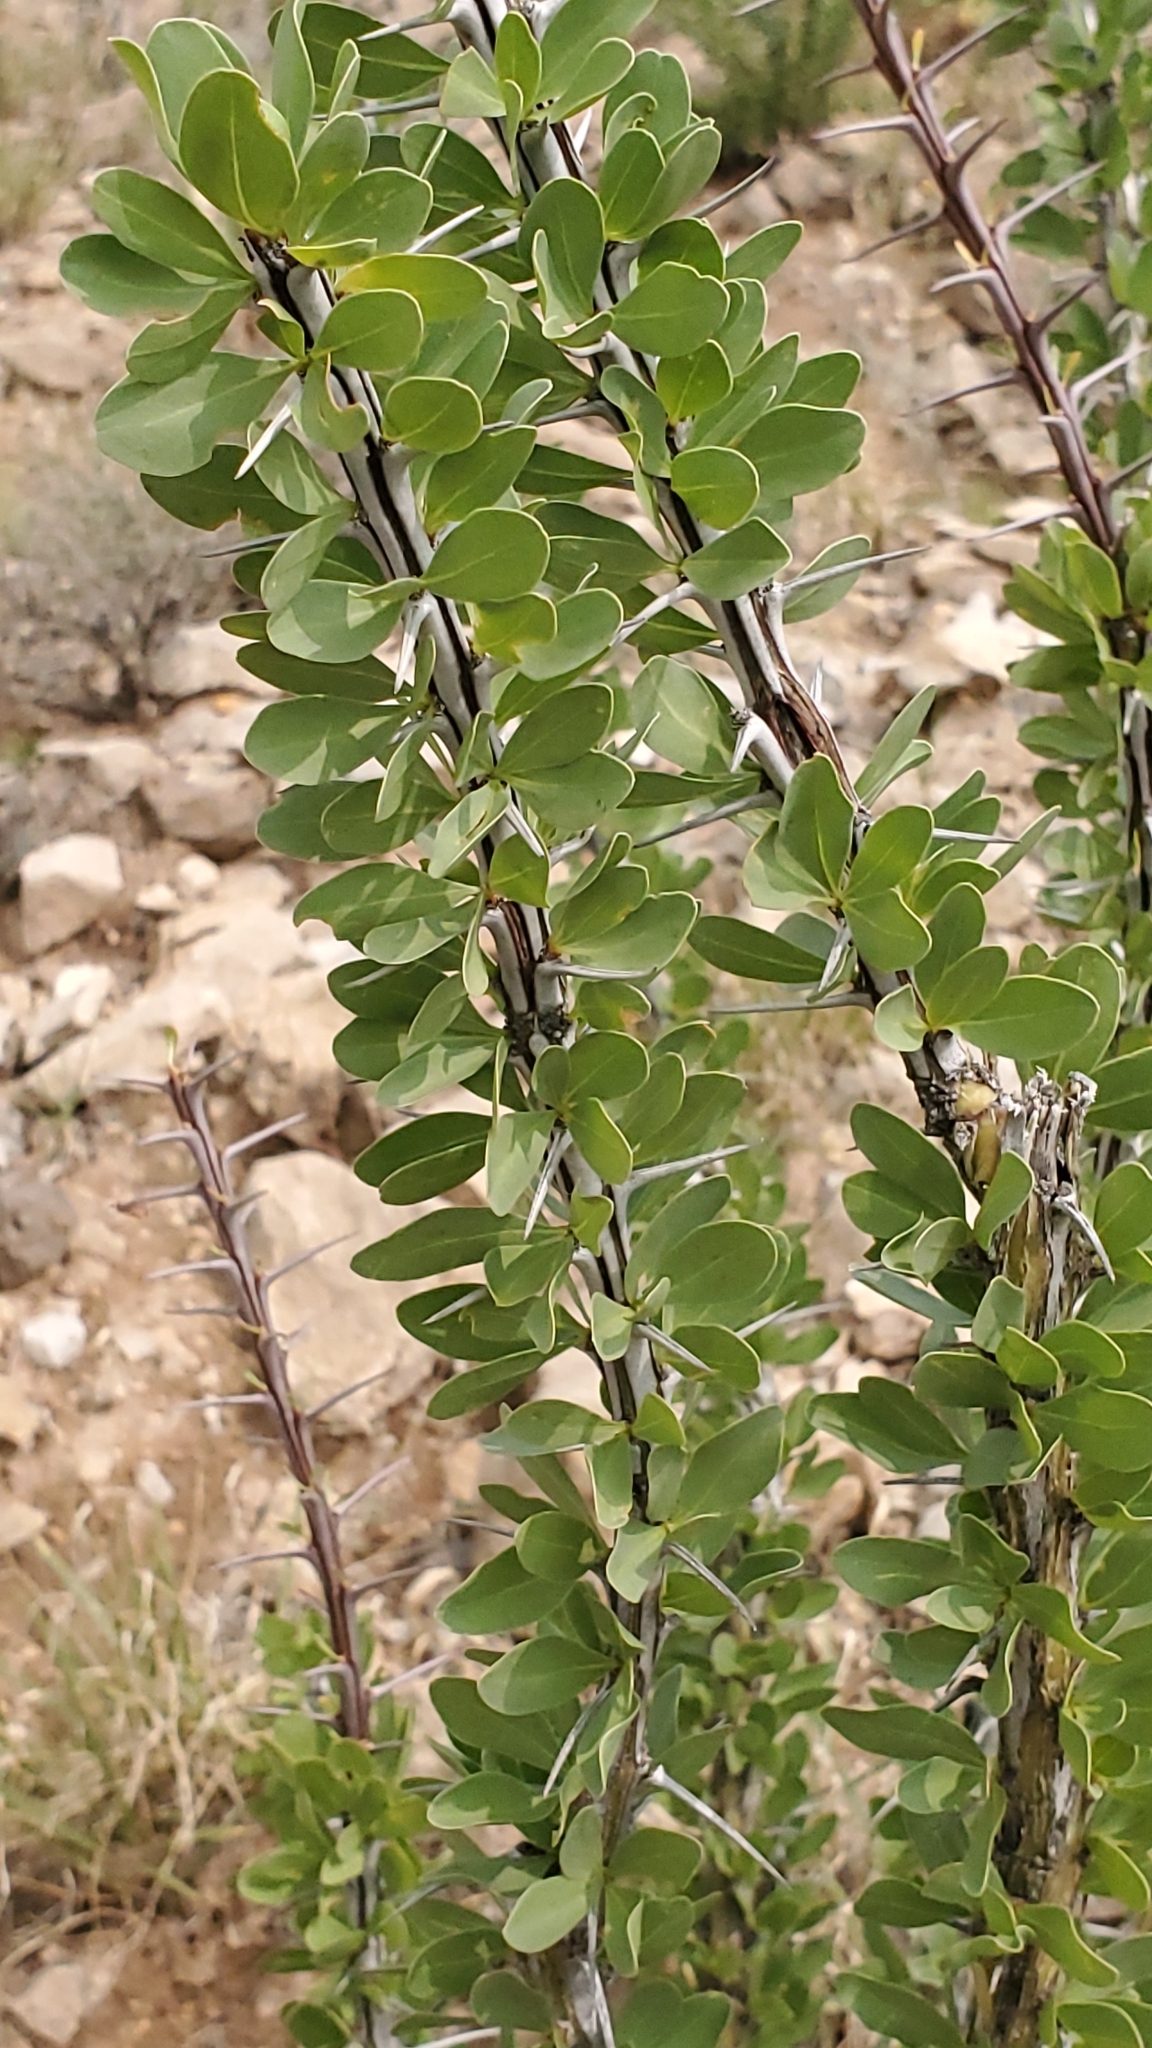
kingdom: Plantae
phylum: Tracheophyta
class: Magnoliopsida
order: Ericales
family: Fouquieriaceae
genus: Fouquieria
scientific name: Fouquieria splendens
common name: Vine-cactus
